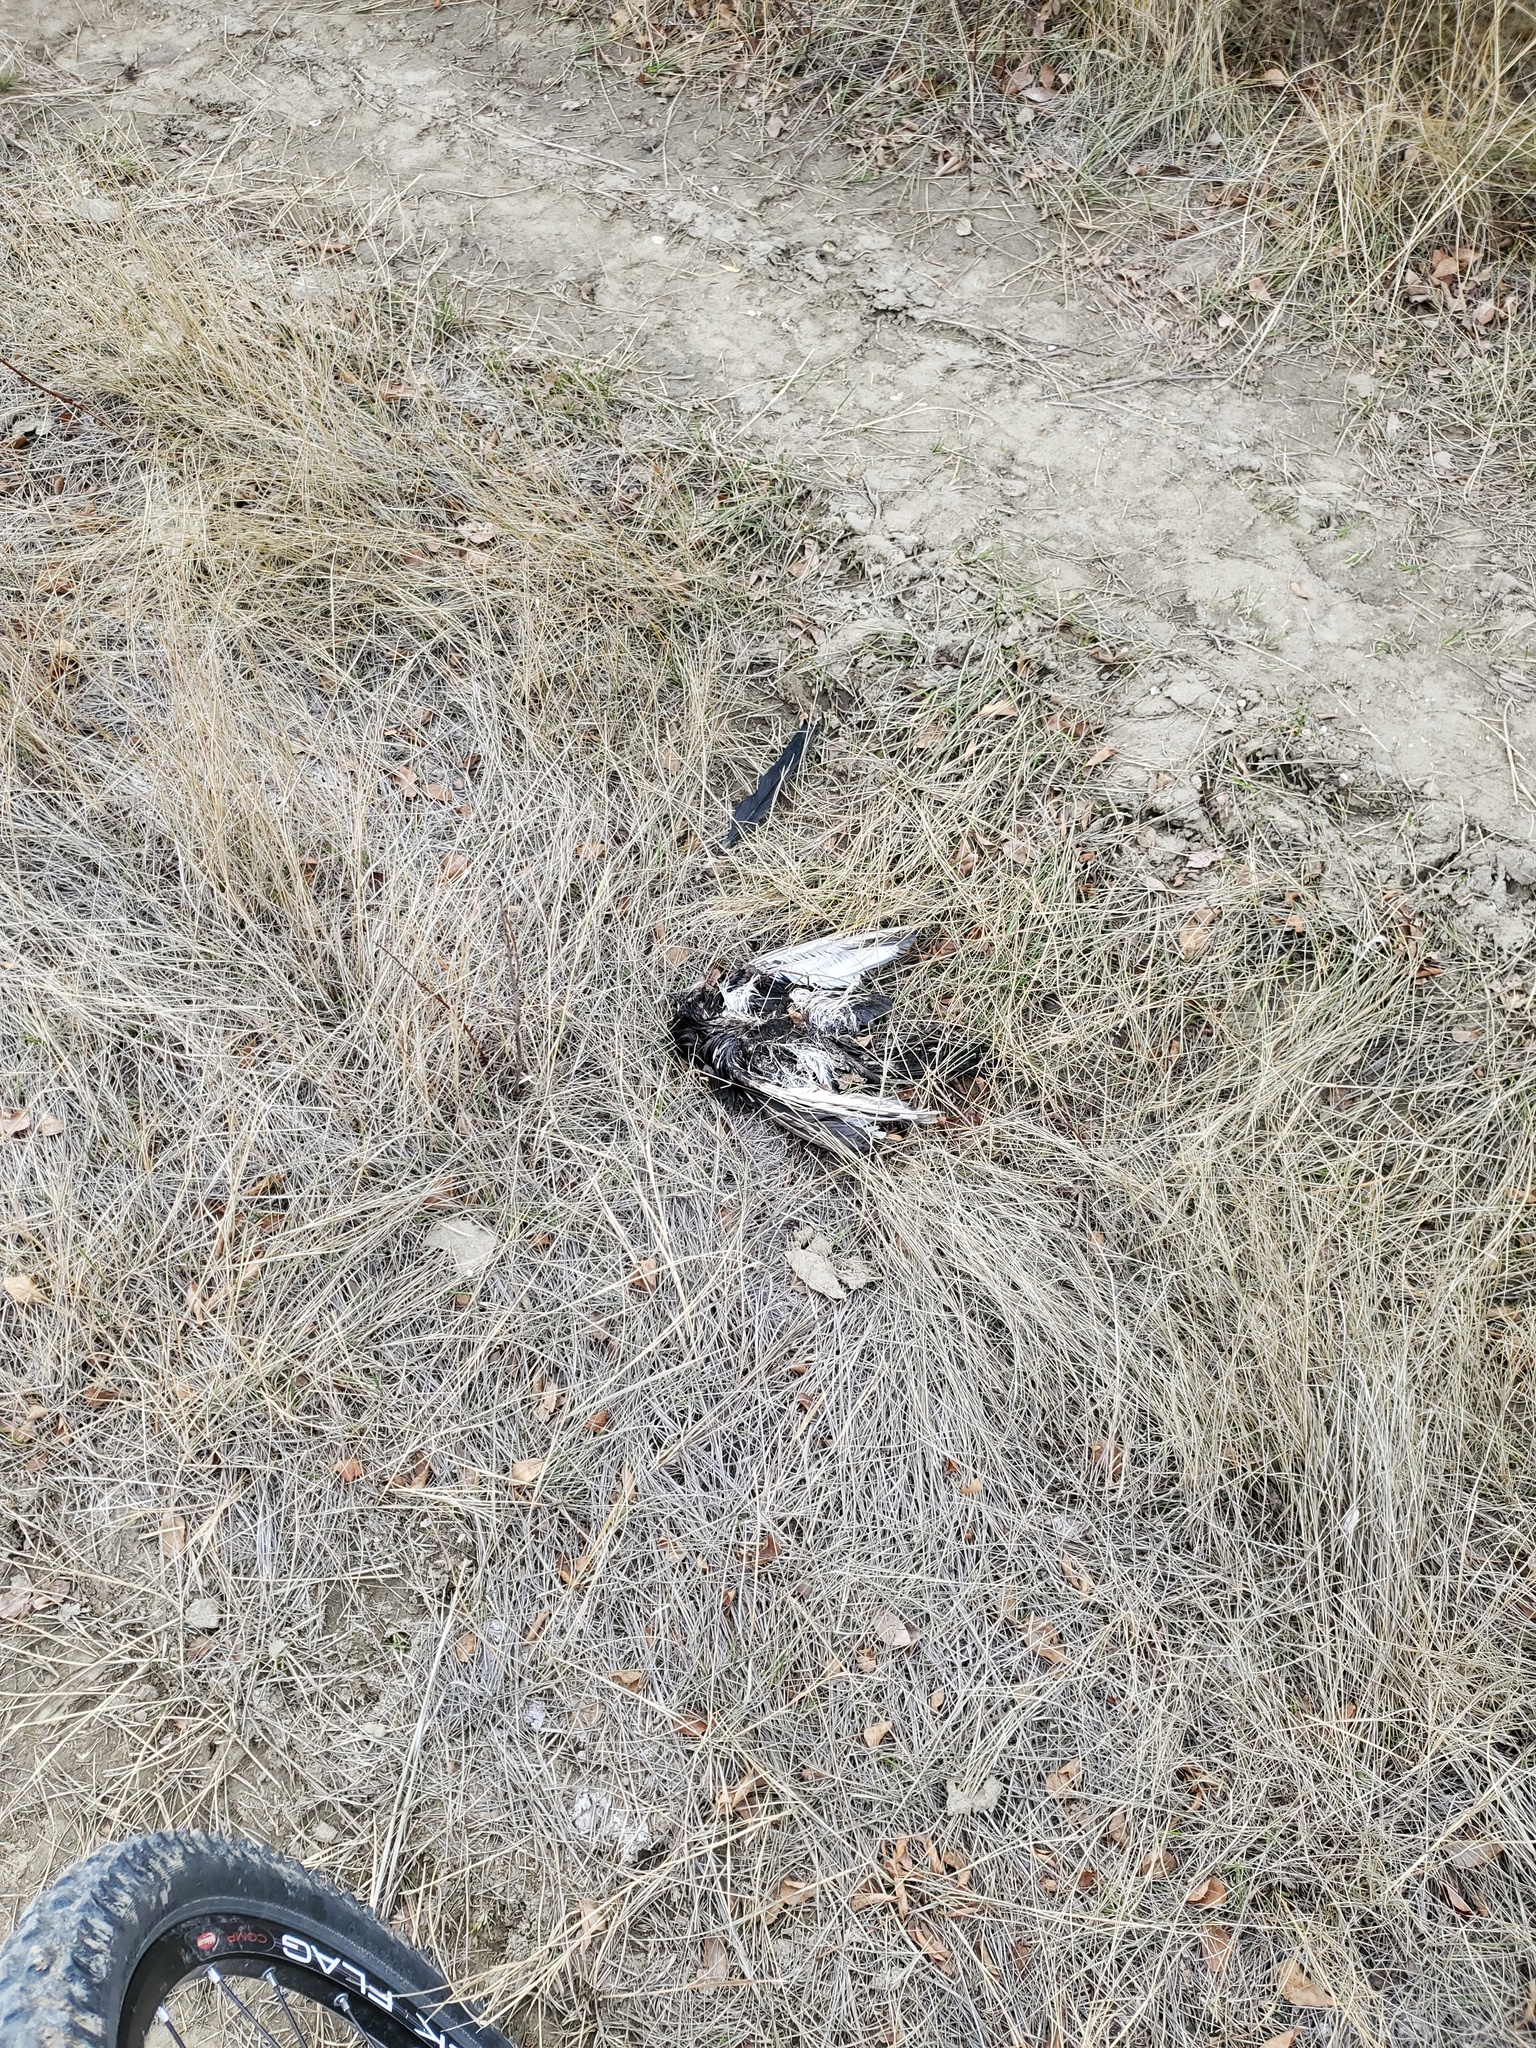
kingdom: Animalia
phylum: Chordata
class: Aves
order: Passeriformes
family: Corvidae
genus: Pica
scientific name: Pica hudsonia
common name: Black-billed magpie
